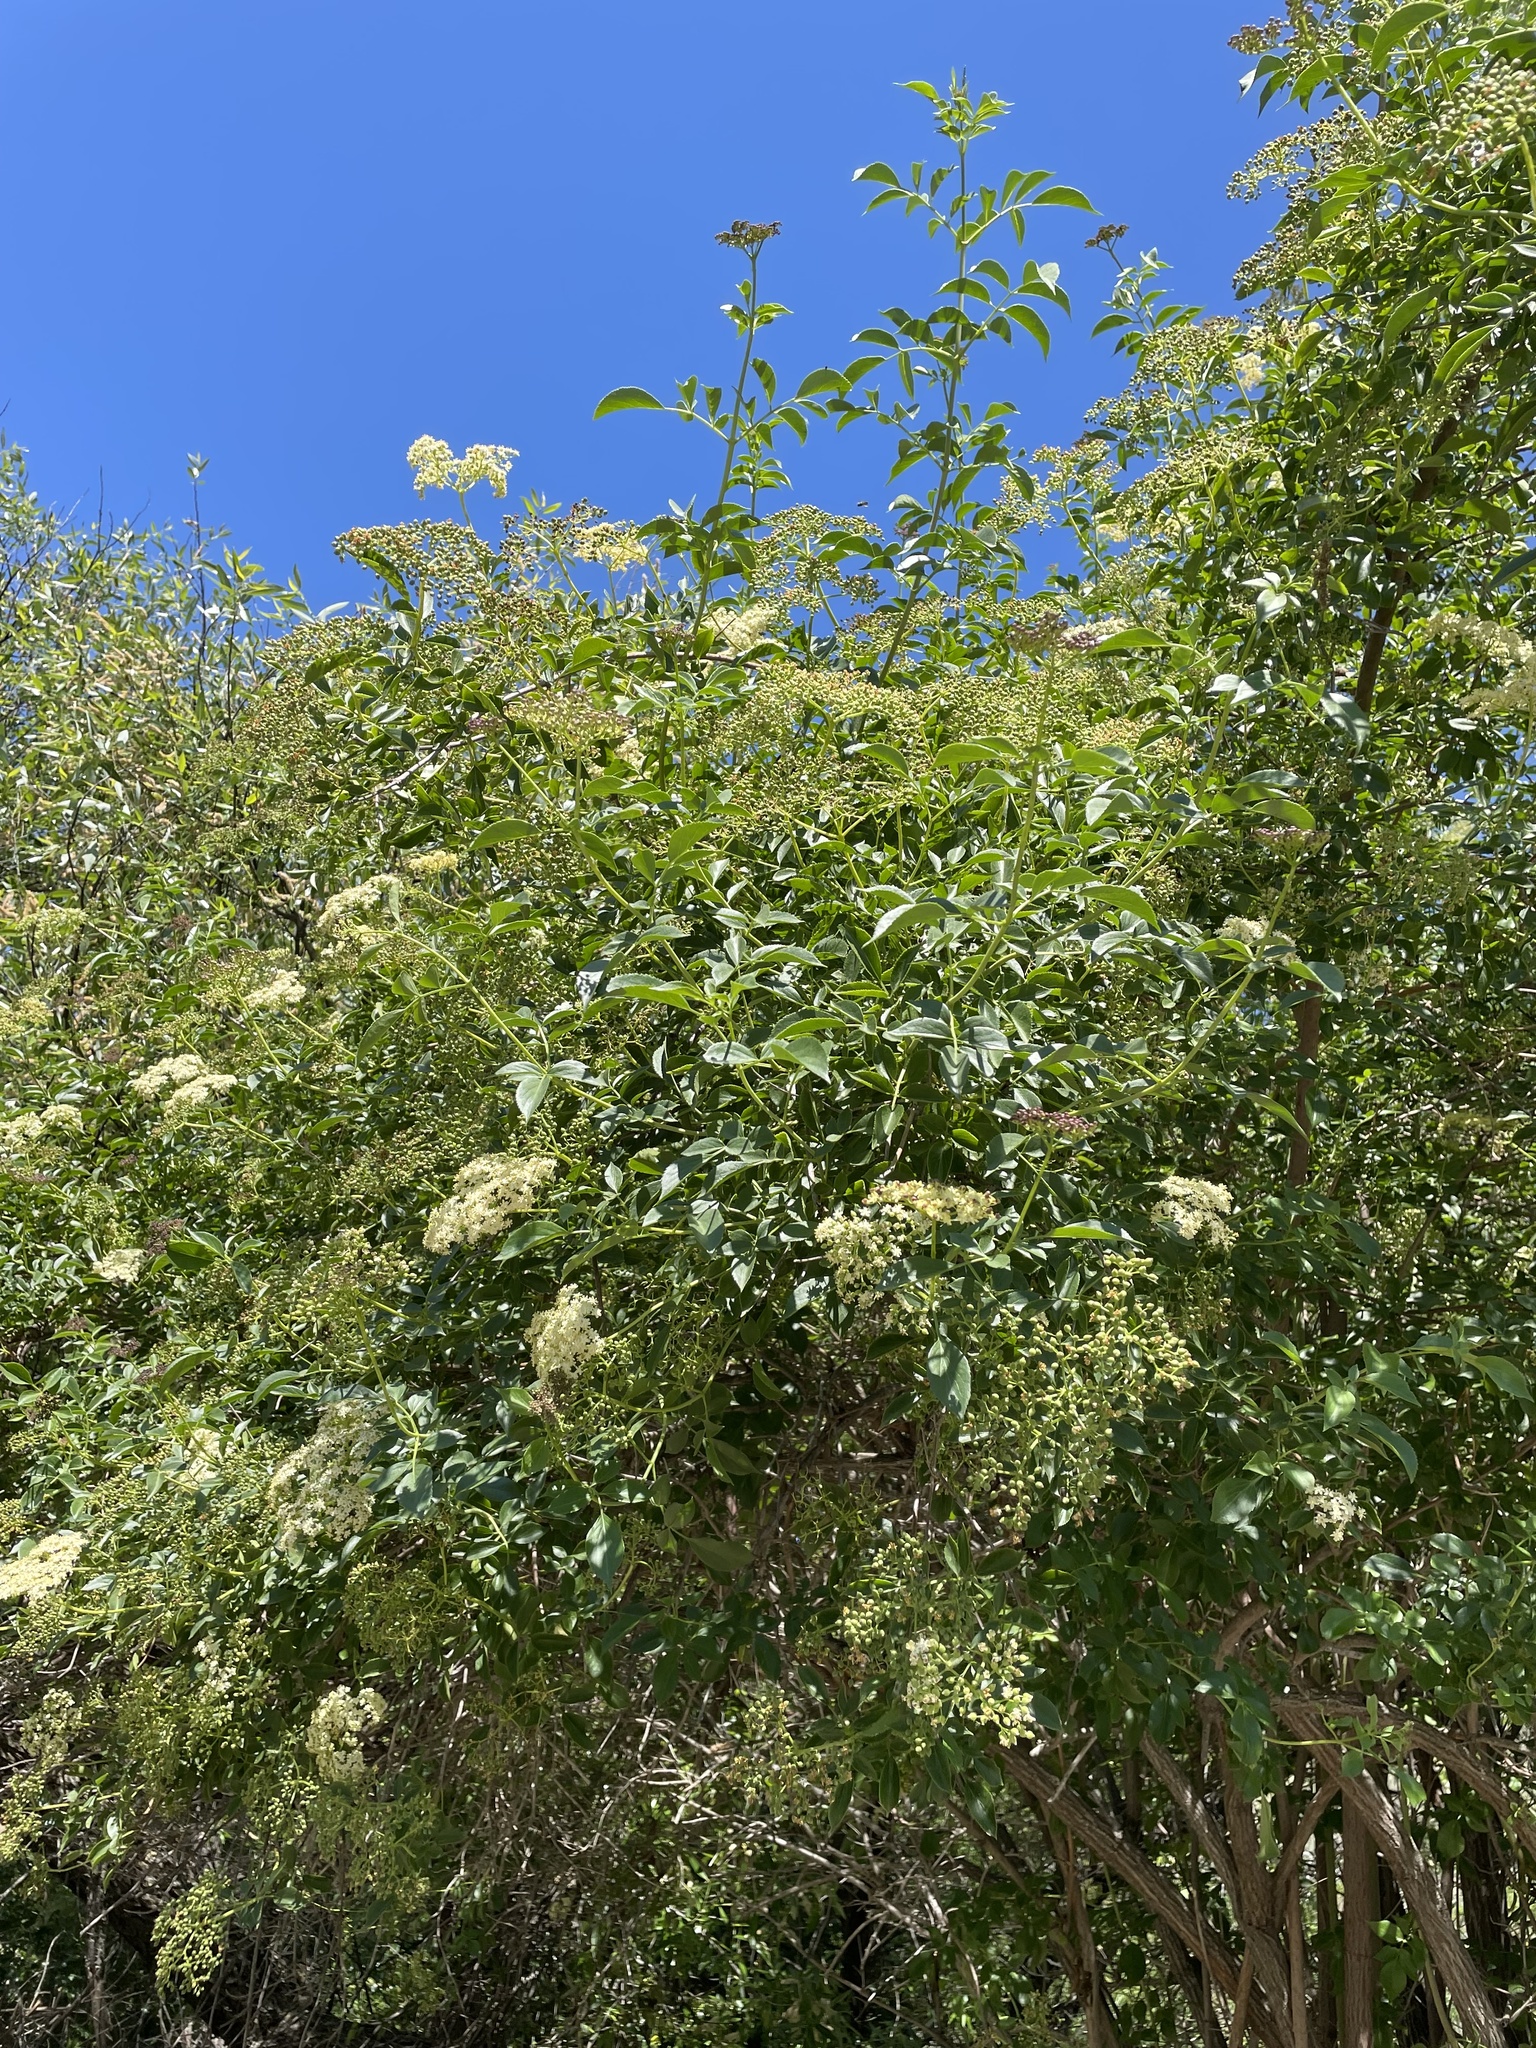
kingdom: Plantae
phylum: Tracheophyta
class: Magnoliopsida
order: Dipsacales
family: Viburnaceae
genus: Sambucus
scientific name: Sambucus cerulea
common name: Blue elder
